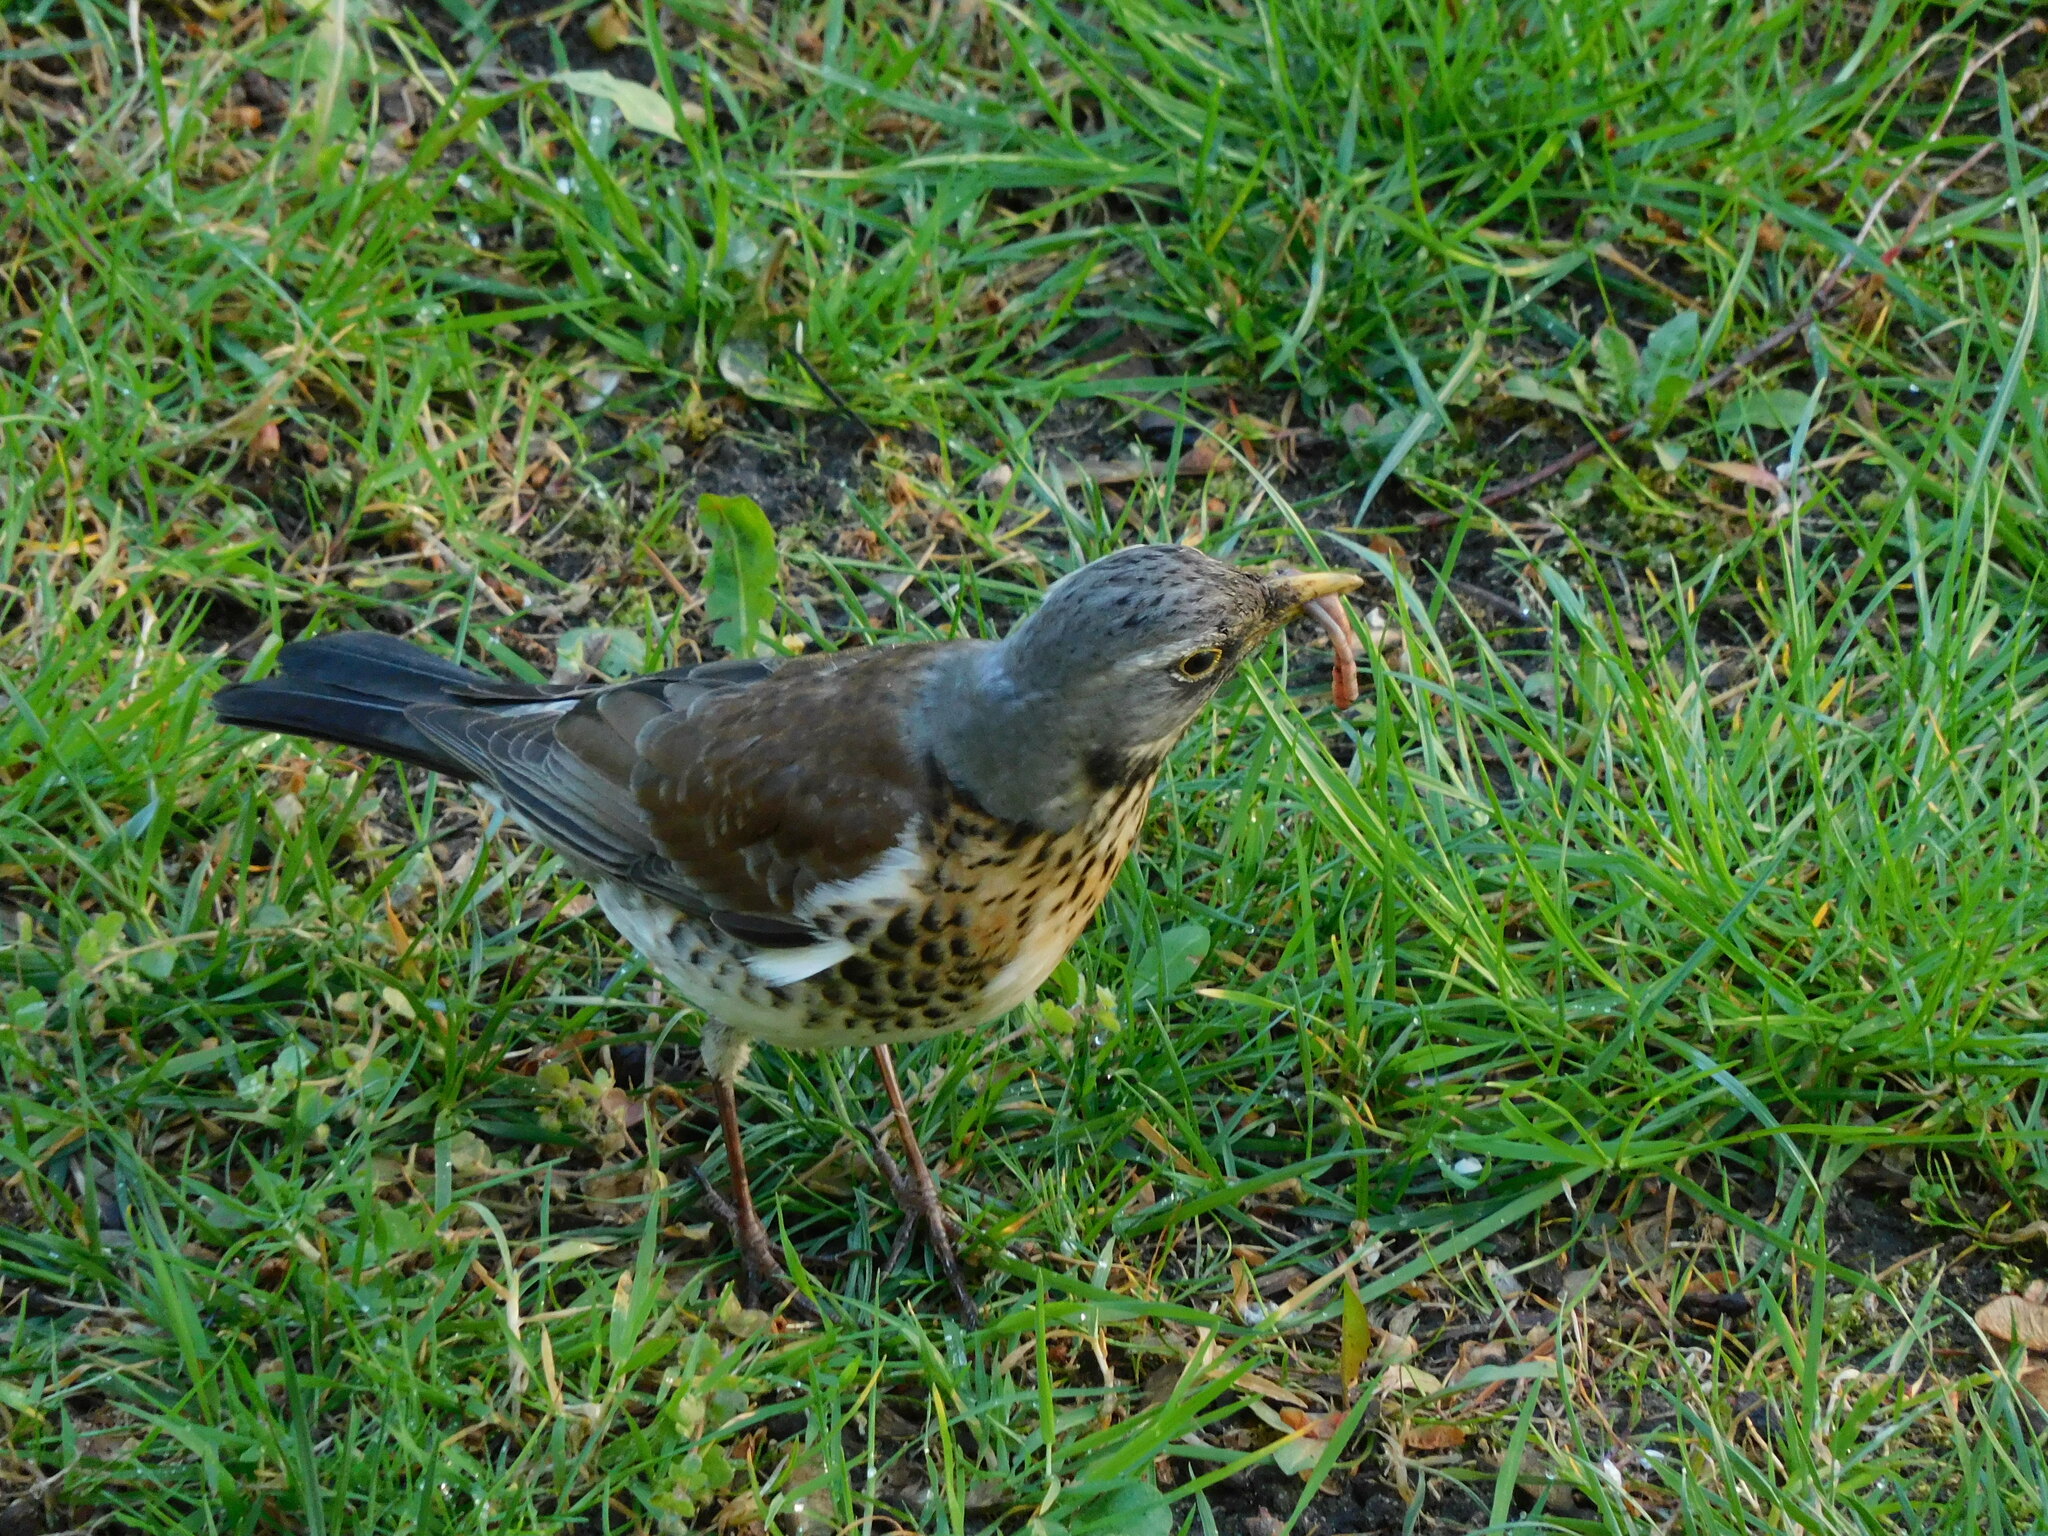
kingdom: Animalia
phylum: Chordata
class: Aves
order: Passeriformes
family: Turdidae
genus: Turdus
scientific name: Turdus pilaris
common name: Fieldfare
